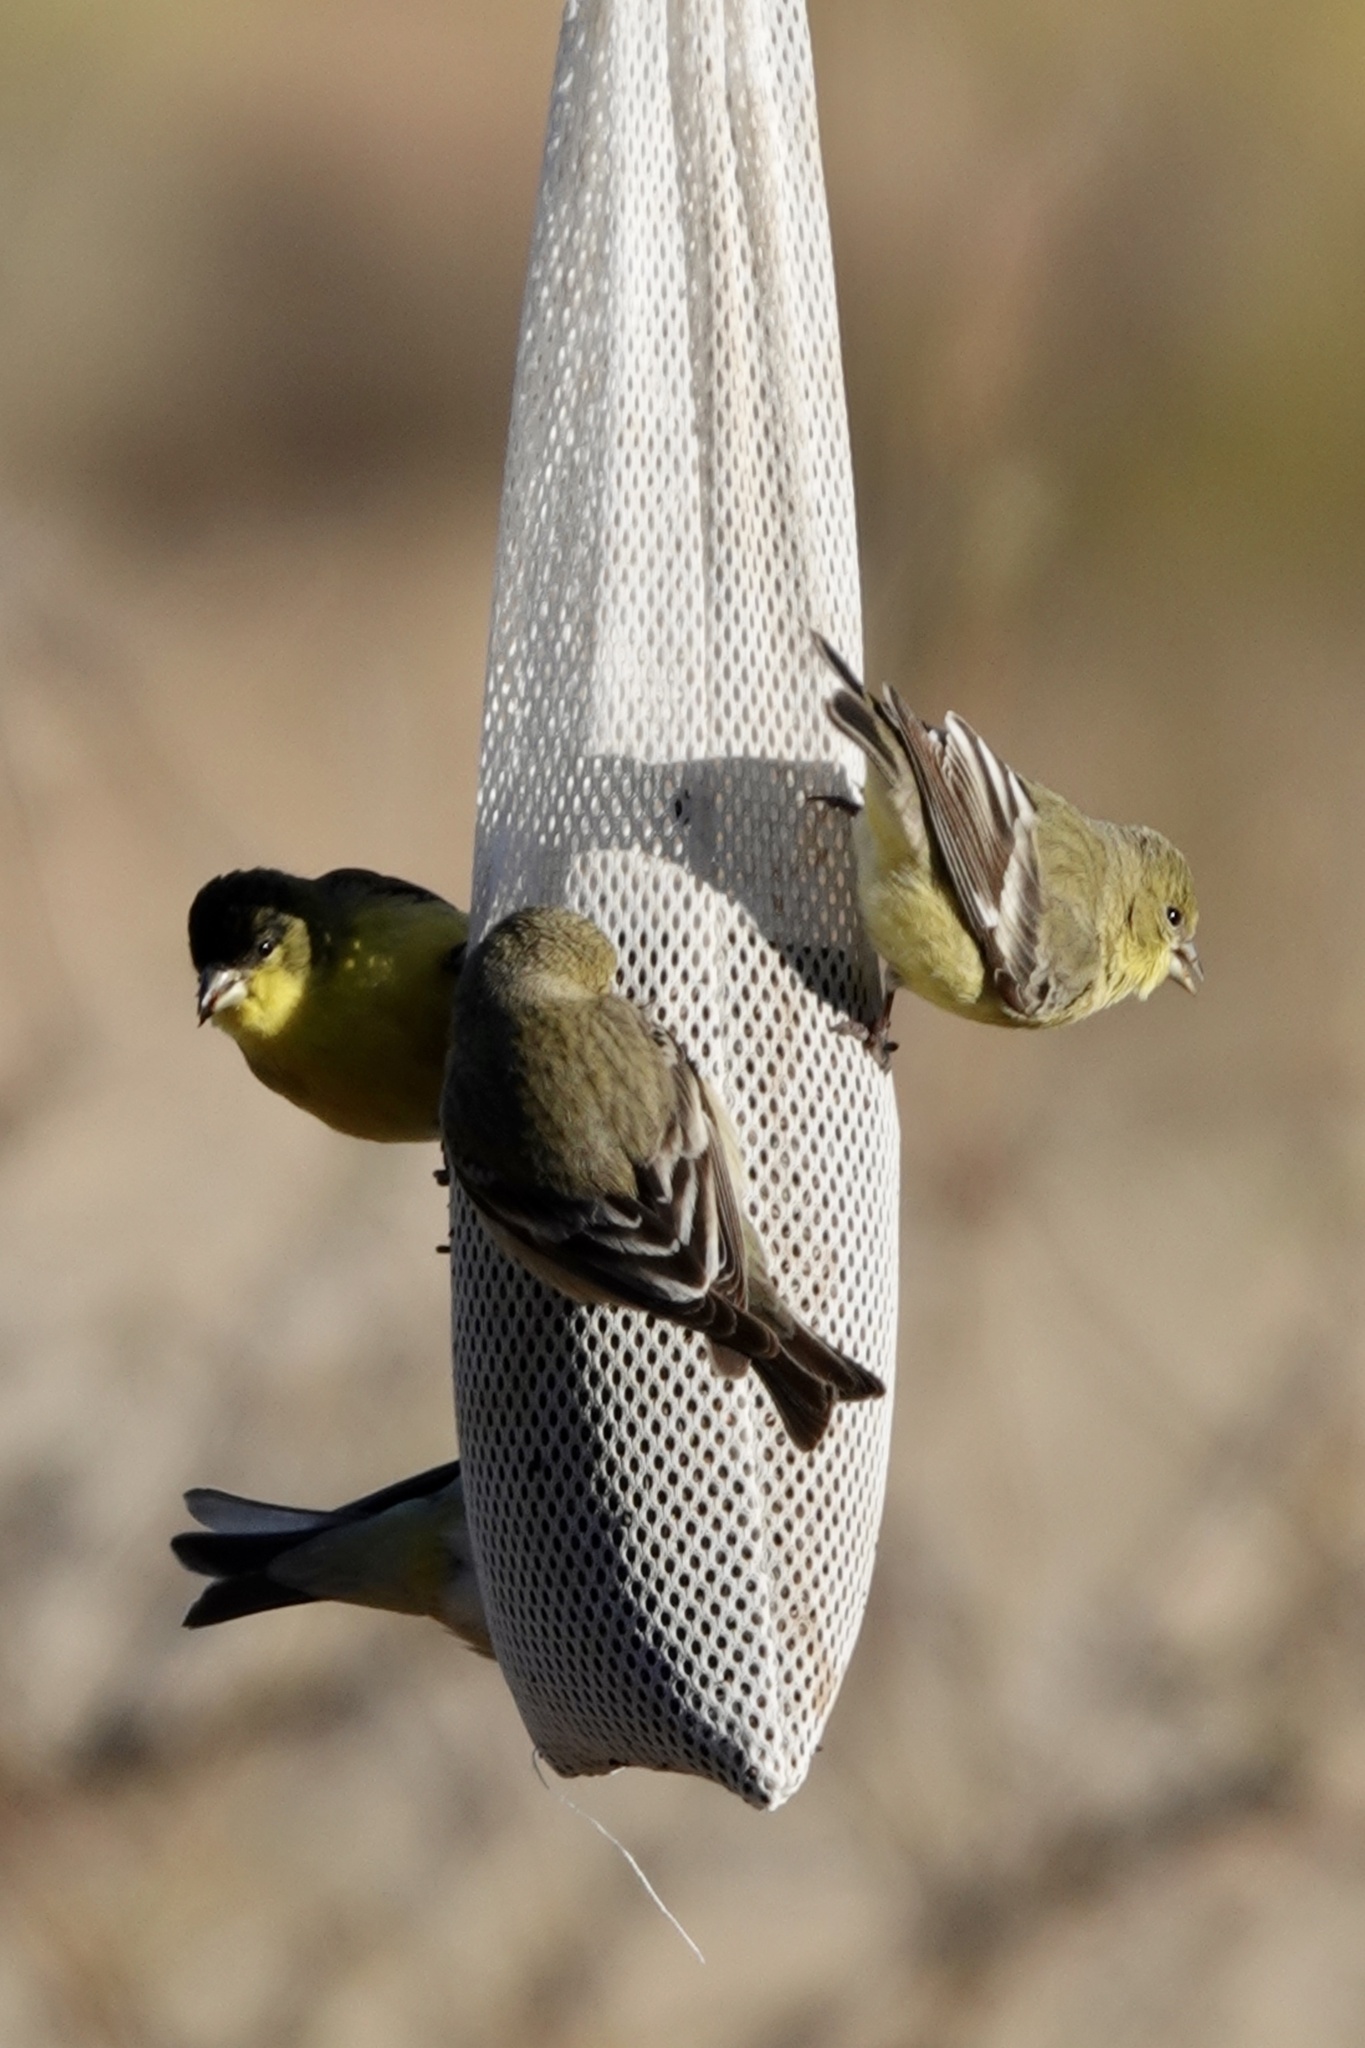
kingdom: Animalia
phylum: Chordata
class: Aves
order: Passeriformes
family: Fringillidae
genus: Spinus
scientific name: Spinus psaltria
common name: Lesser goldfinch
